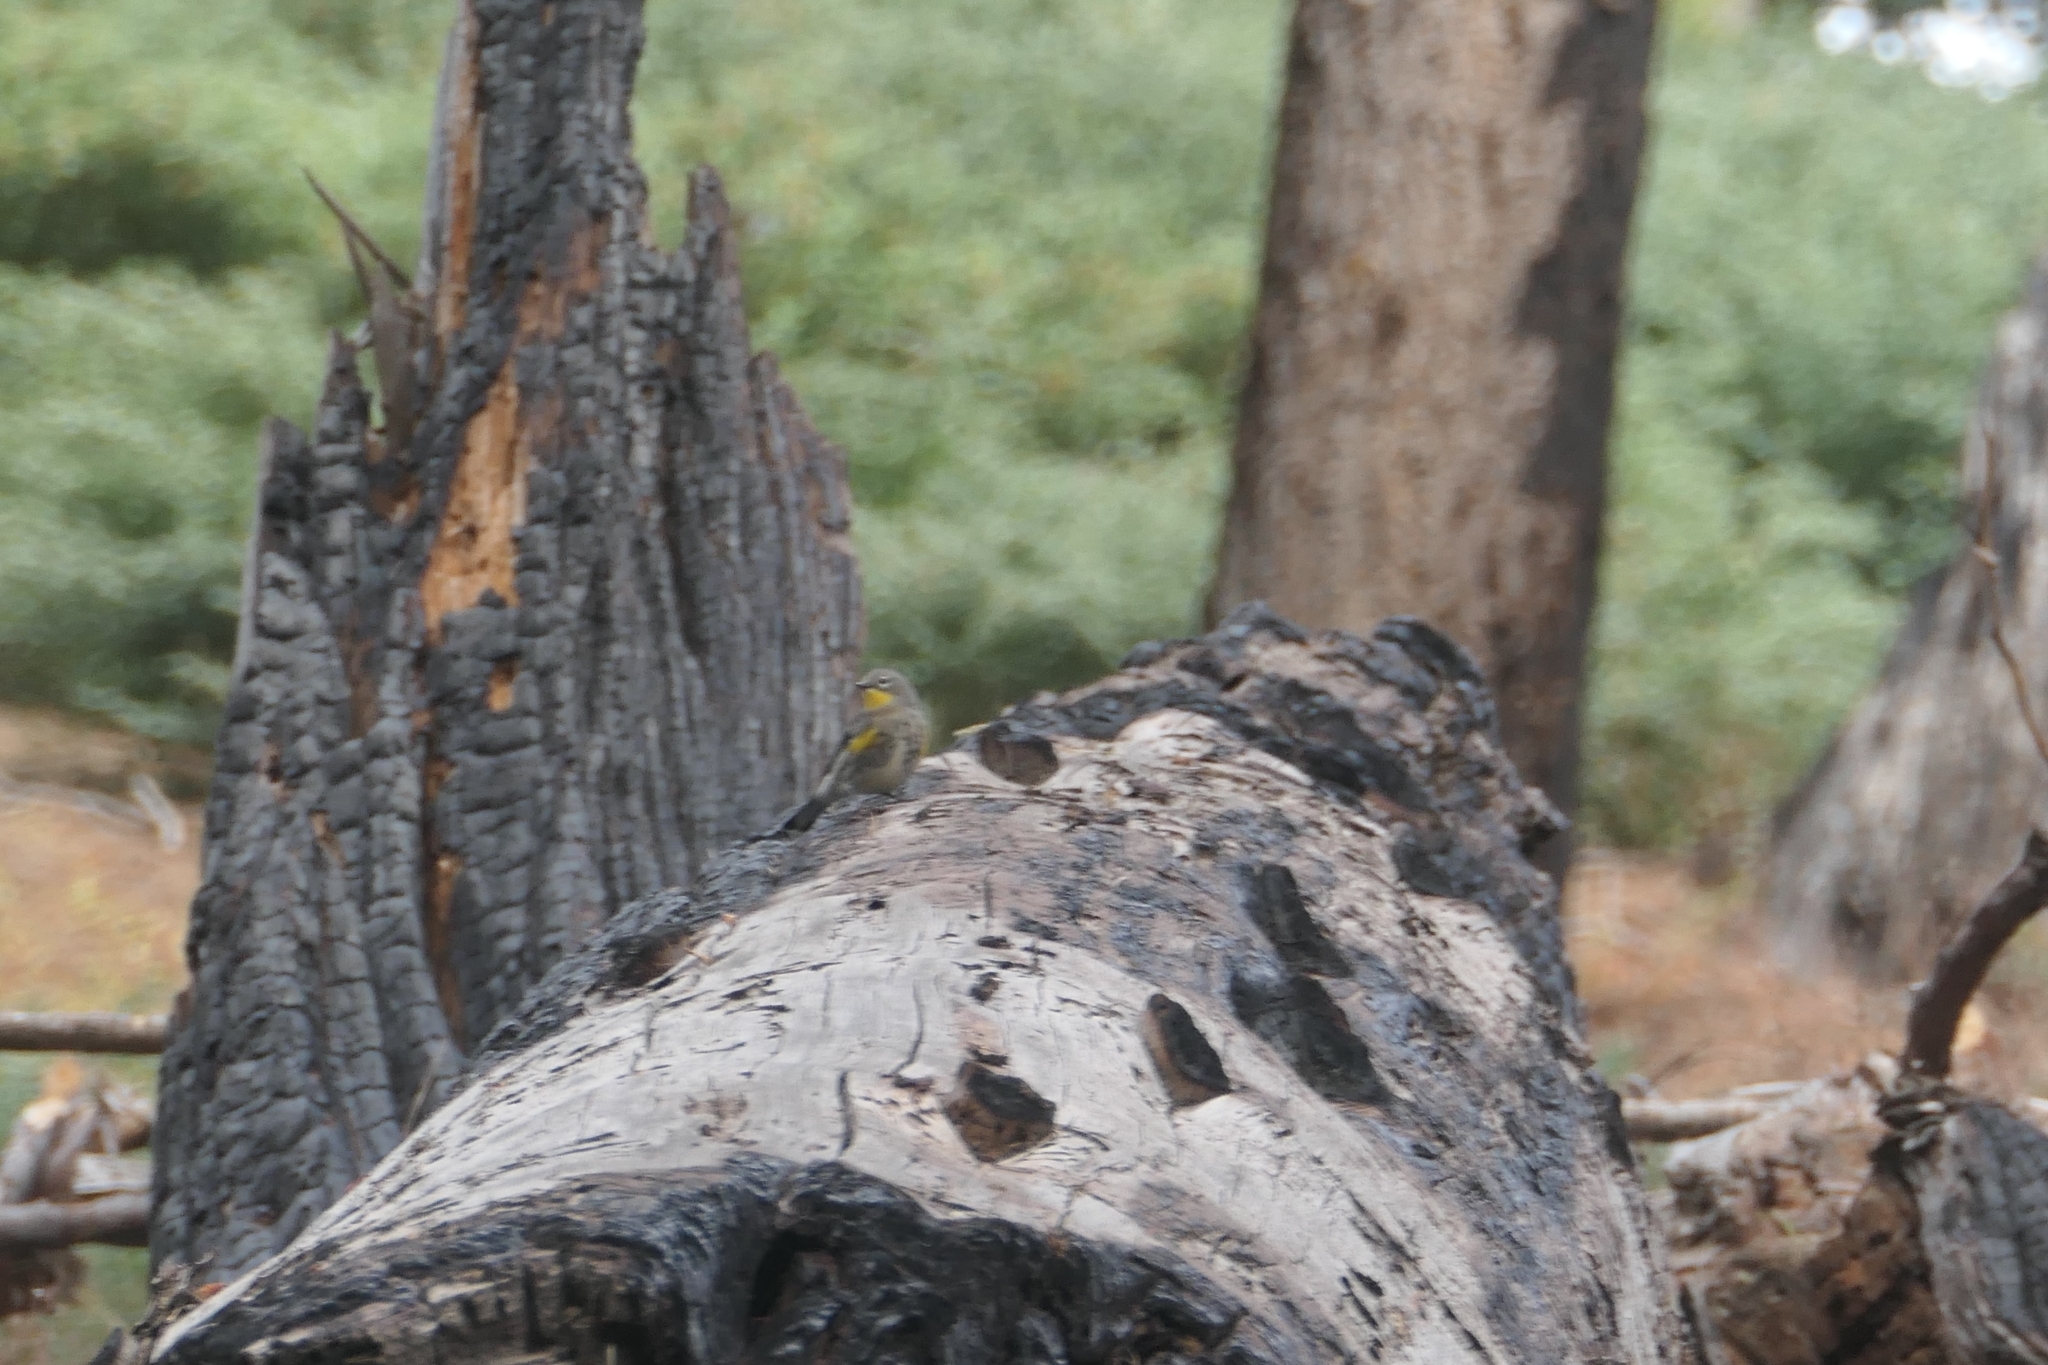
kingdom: Animalia
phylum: Chordata
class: Aves
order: Passeriformes
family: Parulidae
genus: Setophaga
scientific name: Setophaga coronata
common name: Myrtle warbler
